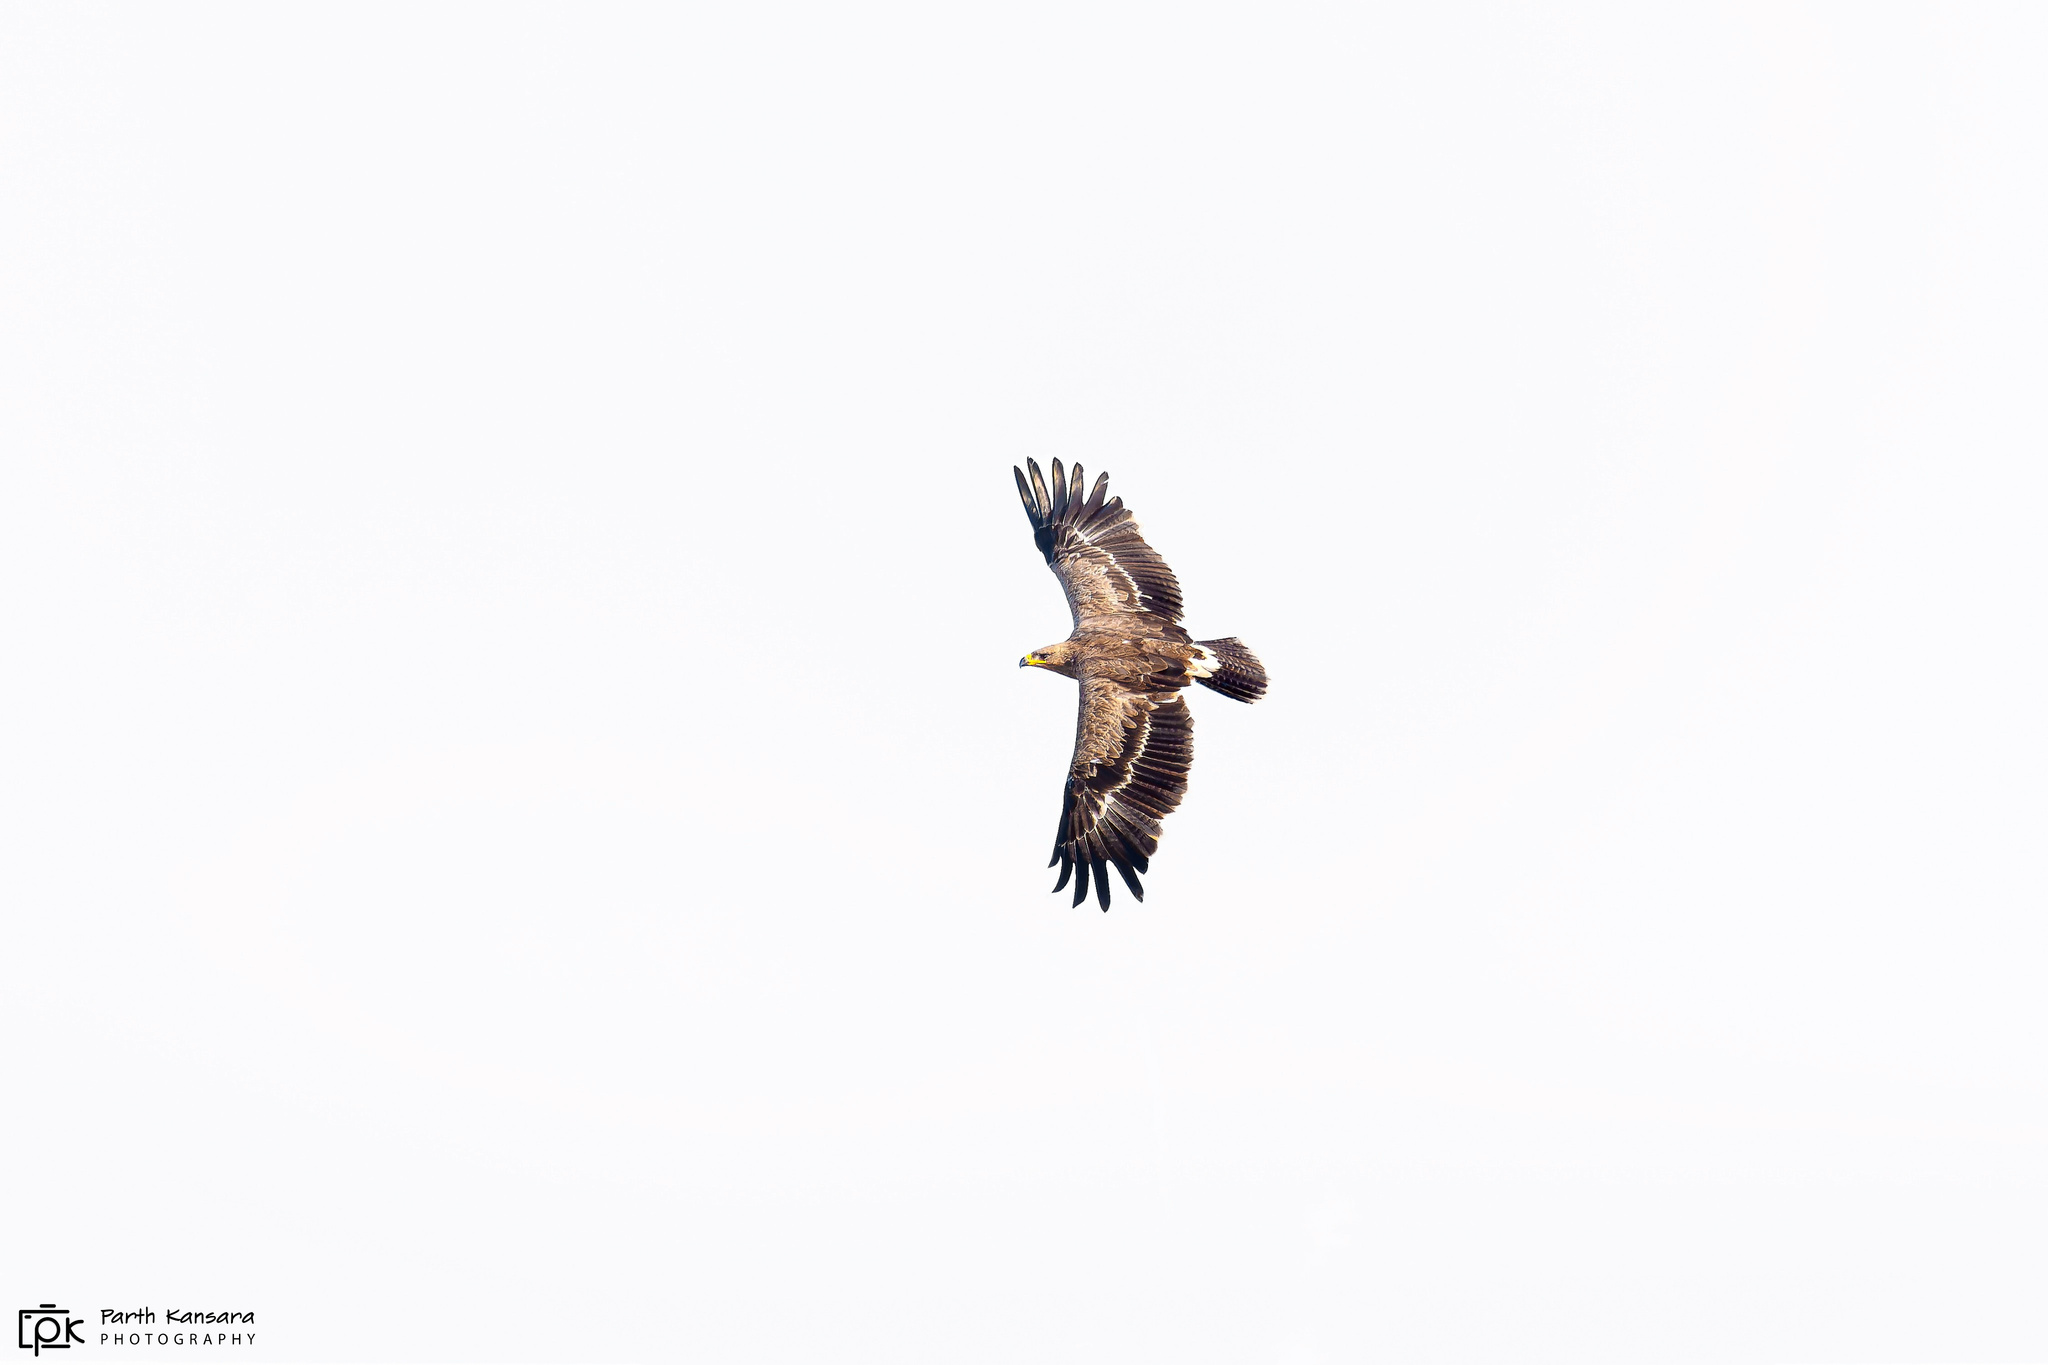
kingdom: Animalia
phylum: Chordata
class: Aves
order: Accipitriformes
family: Accipitridae
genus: Aquila
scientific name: Aquila nipalensis
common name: Steppe eagle
